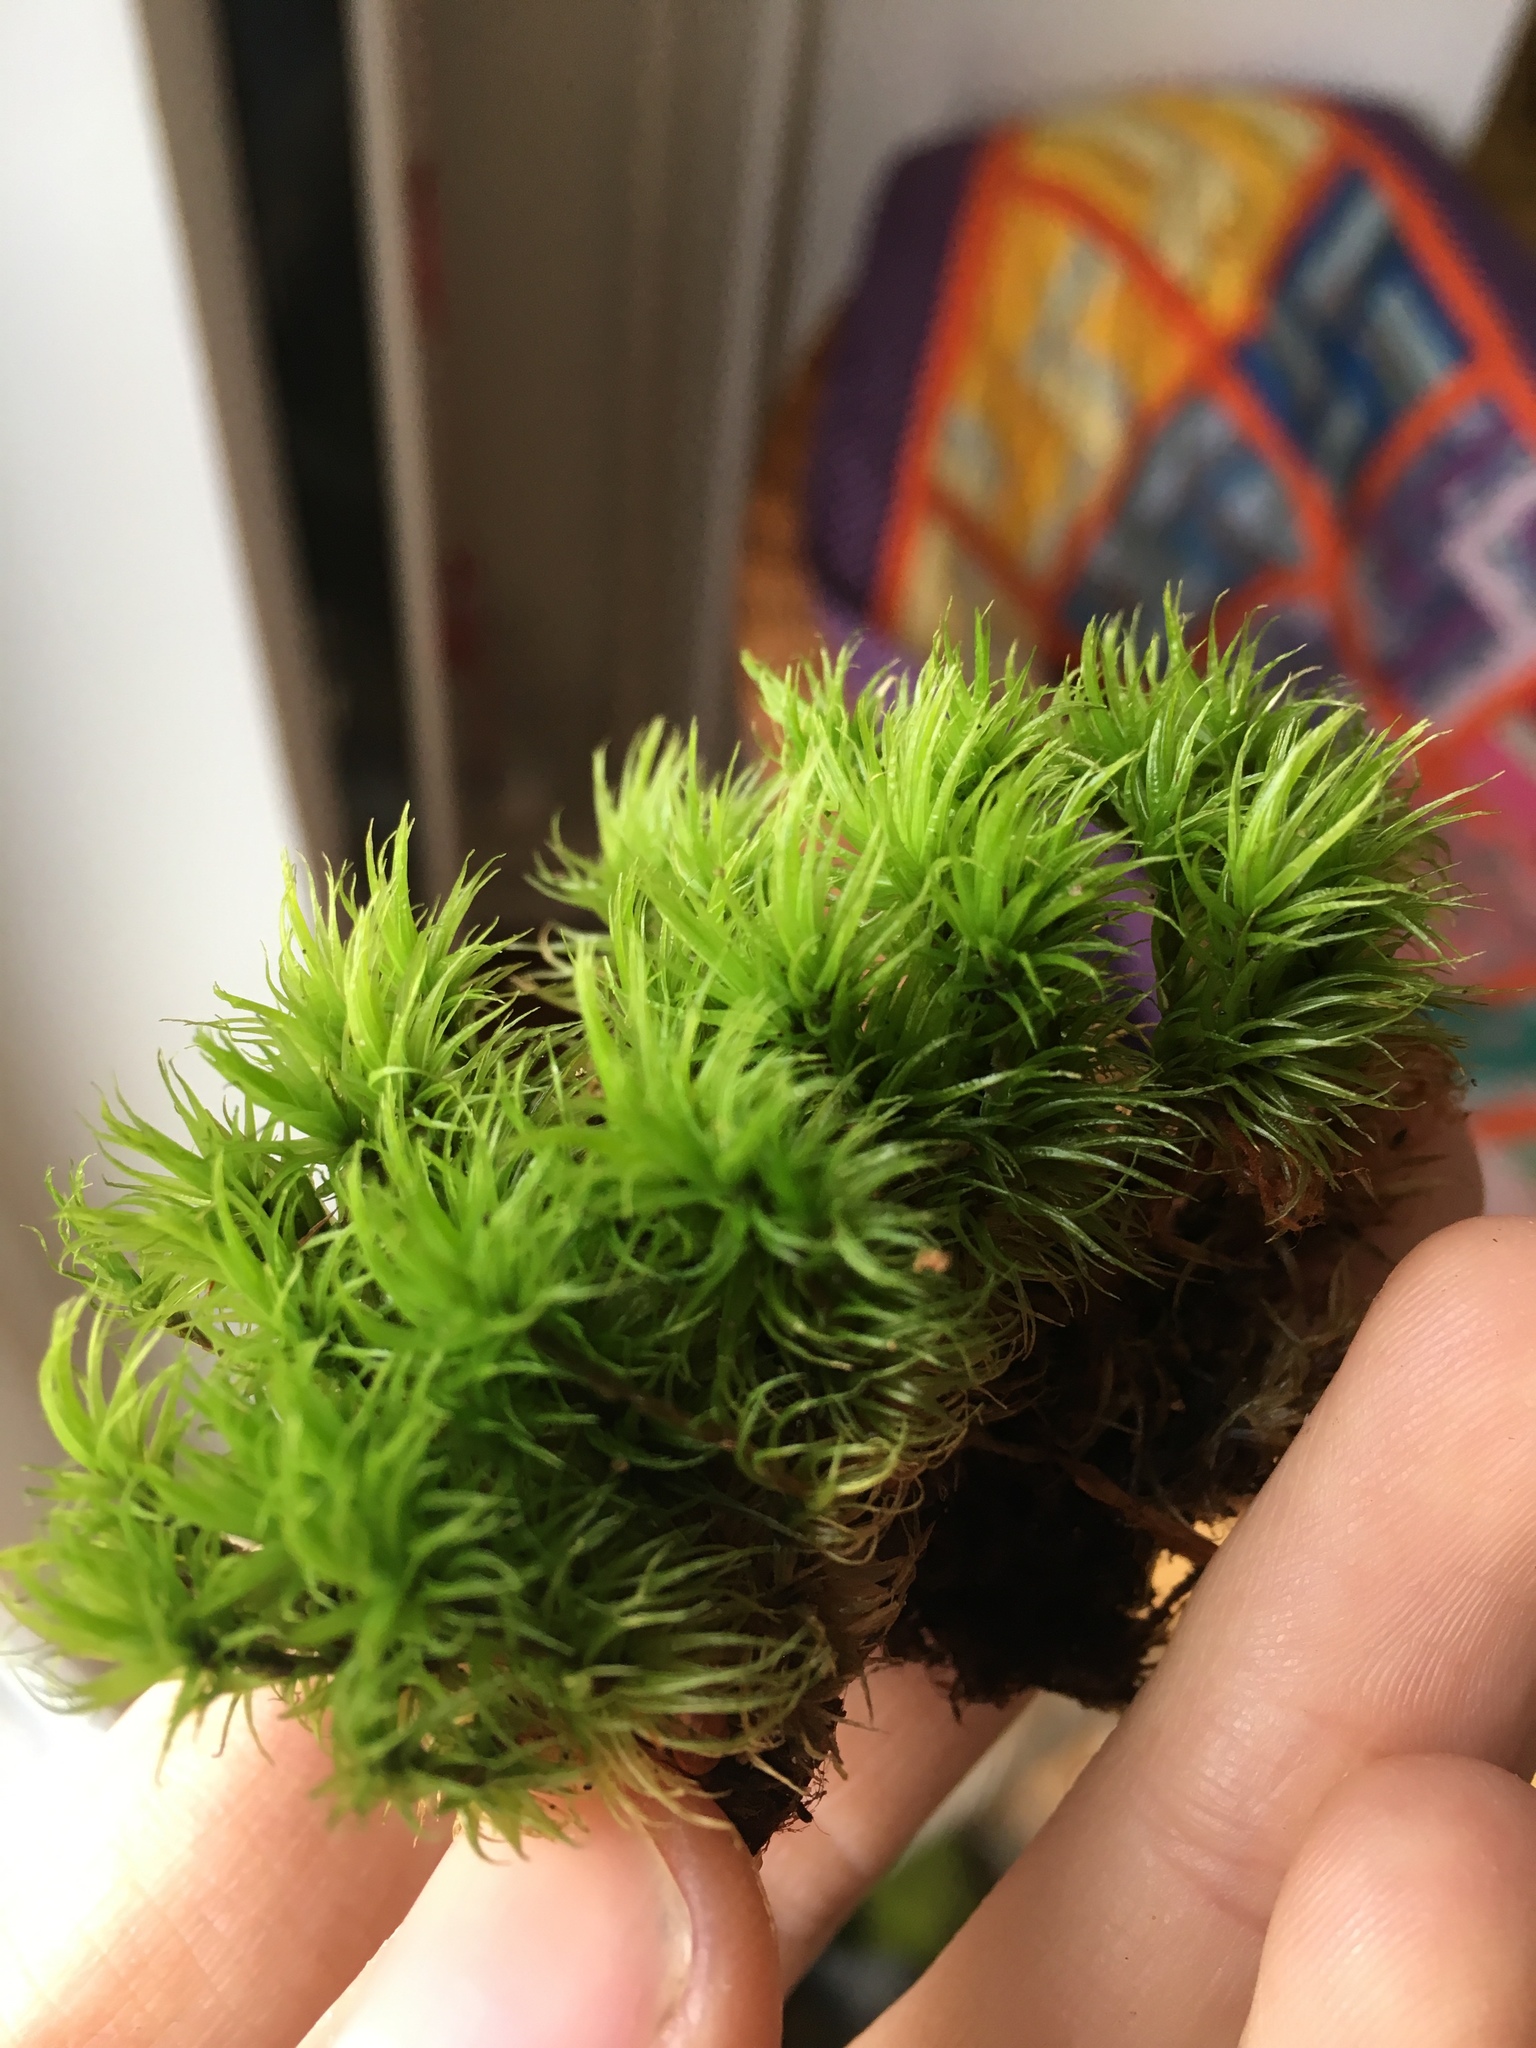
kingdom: Plantae
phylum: Bryophyta
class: Bryopsida
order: Dicranales
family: Dicranaceae
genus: Dicranum
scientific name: Dicranum scoparium
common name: Broom fork-moss
